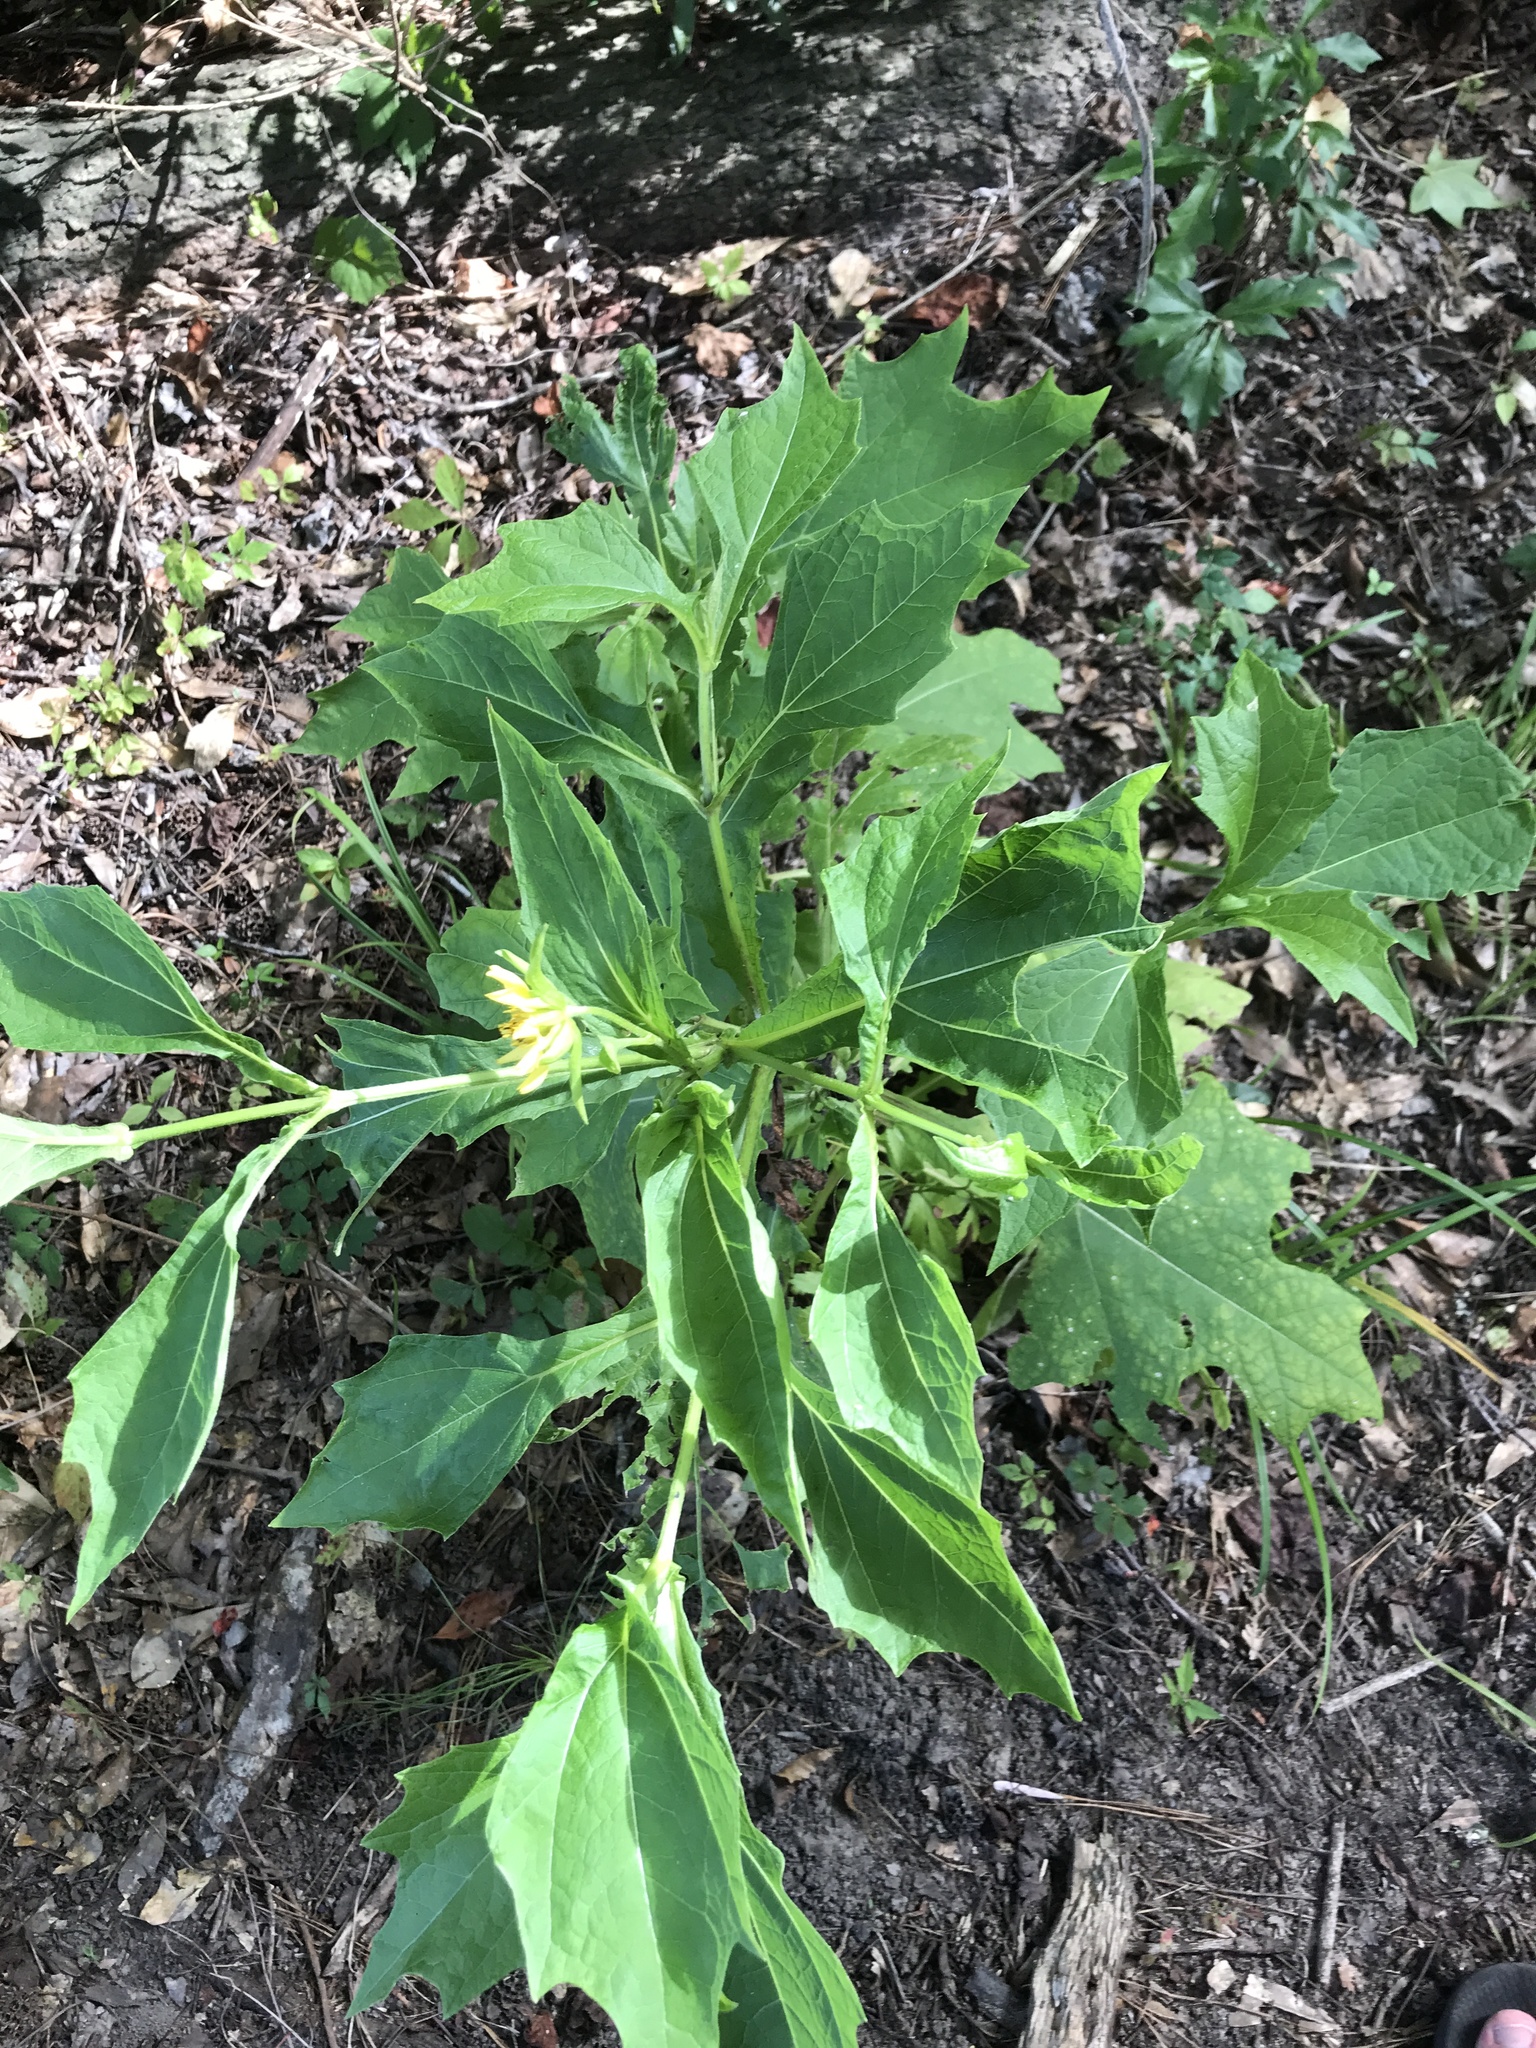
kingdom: Plantae
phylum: Tracheophyta
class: Magnoliopsida
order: Asterales
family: Asteraceae
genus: Smallanthus
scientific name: Smallanthus uvedalia
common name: Bear's-foot
